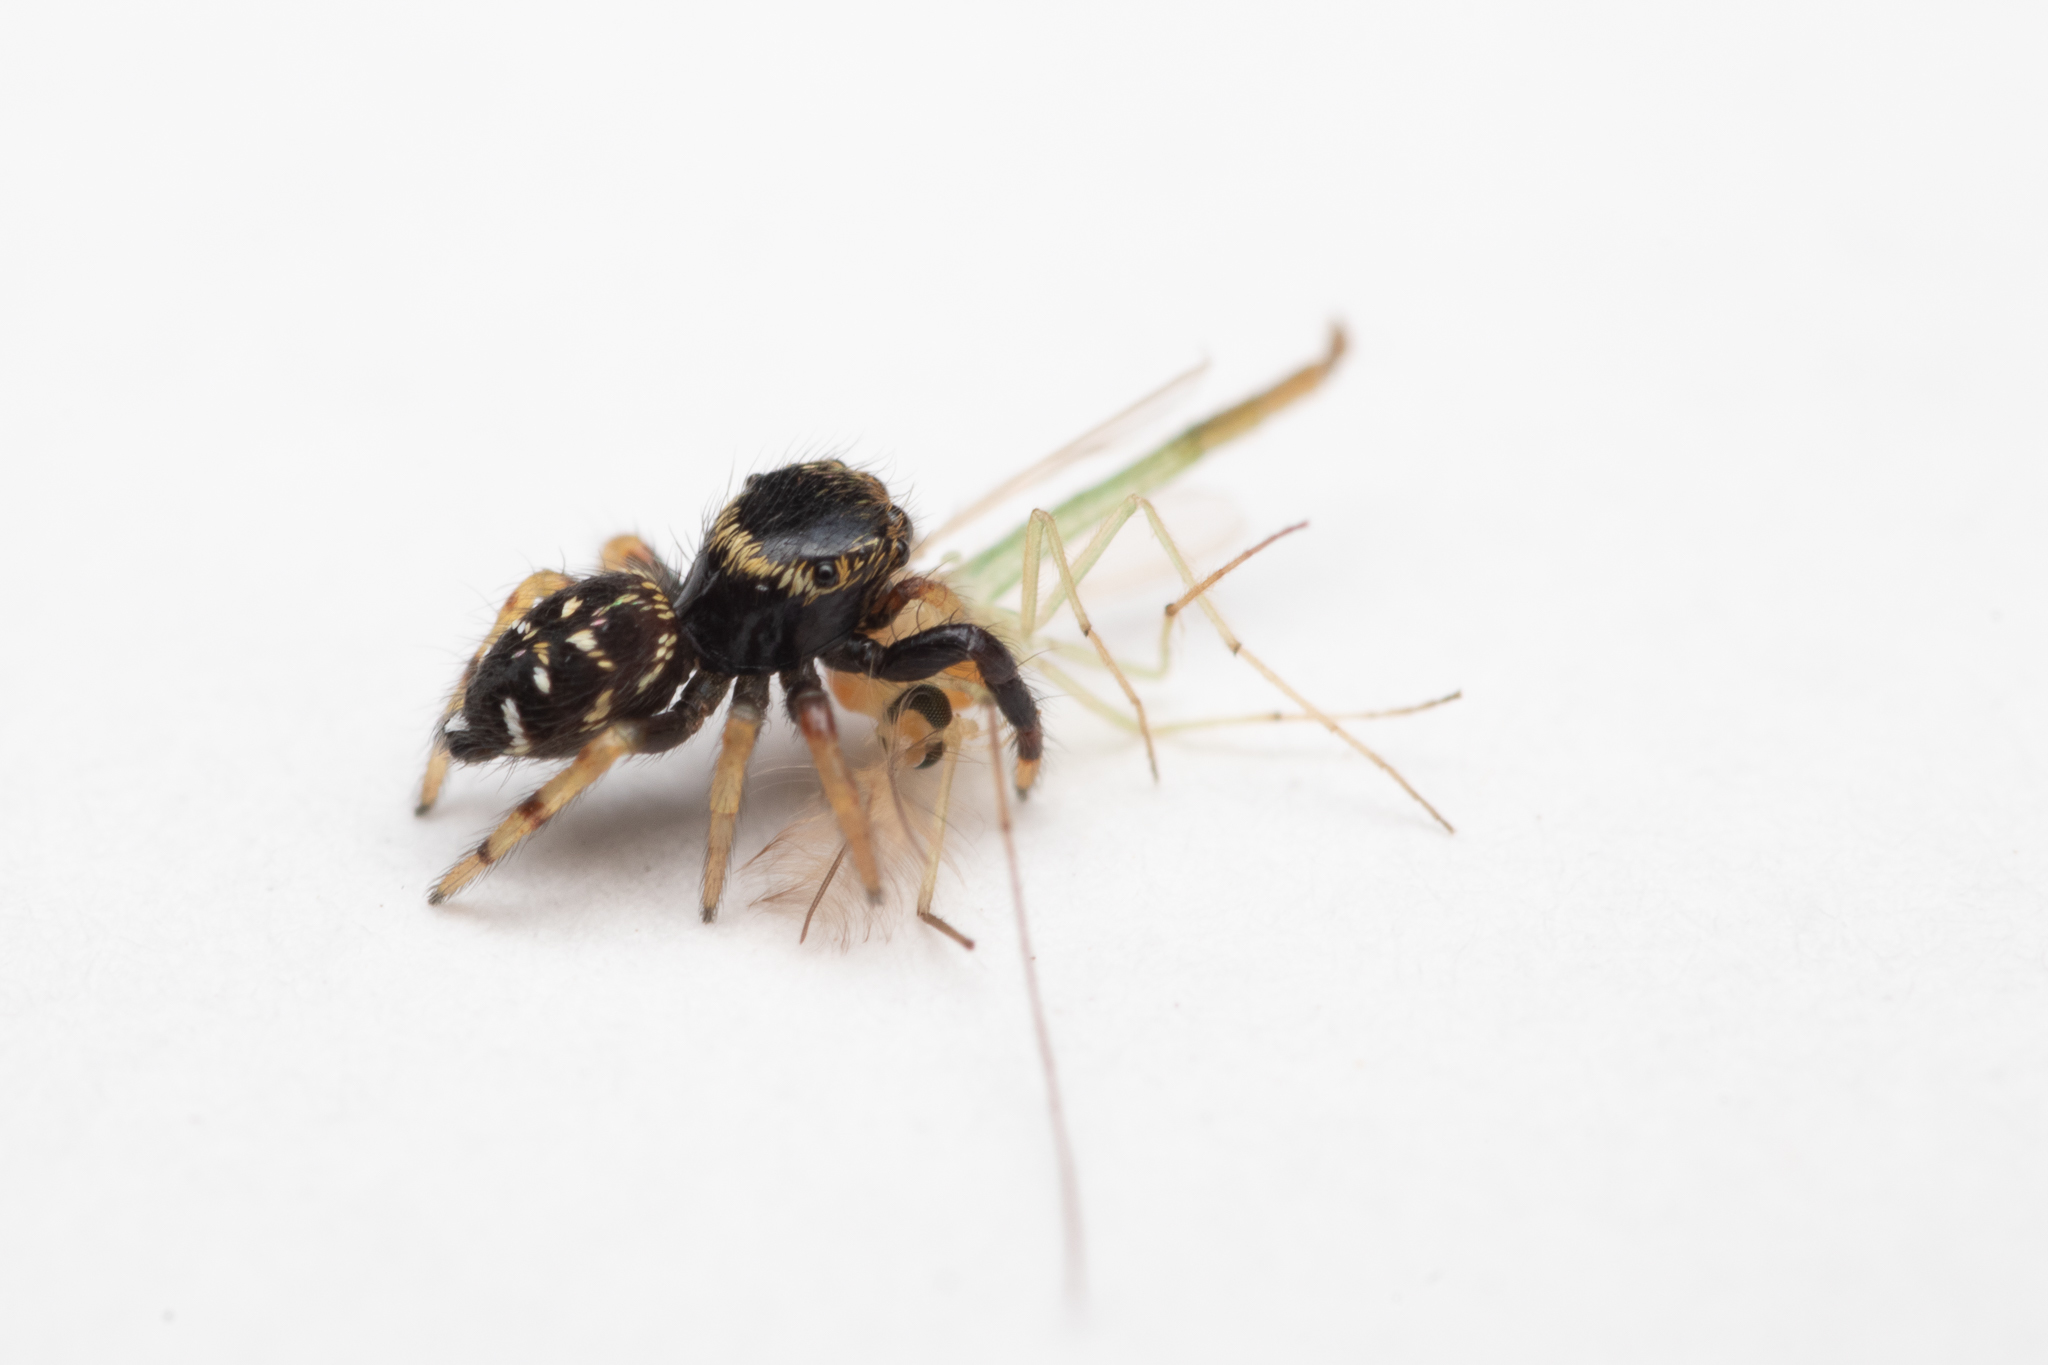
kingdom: Animalia
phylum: Arthropoda
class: Arachnida
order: Araneae
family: Salticidae
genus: Paraphidippus
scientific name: Paraphidippus aurantius
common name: Jumping spiders
